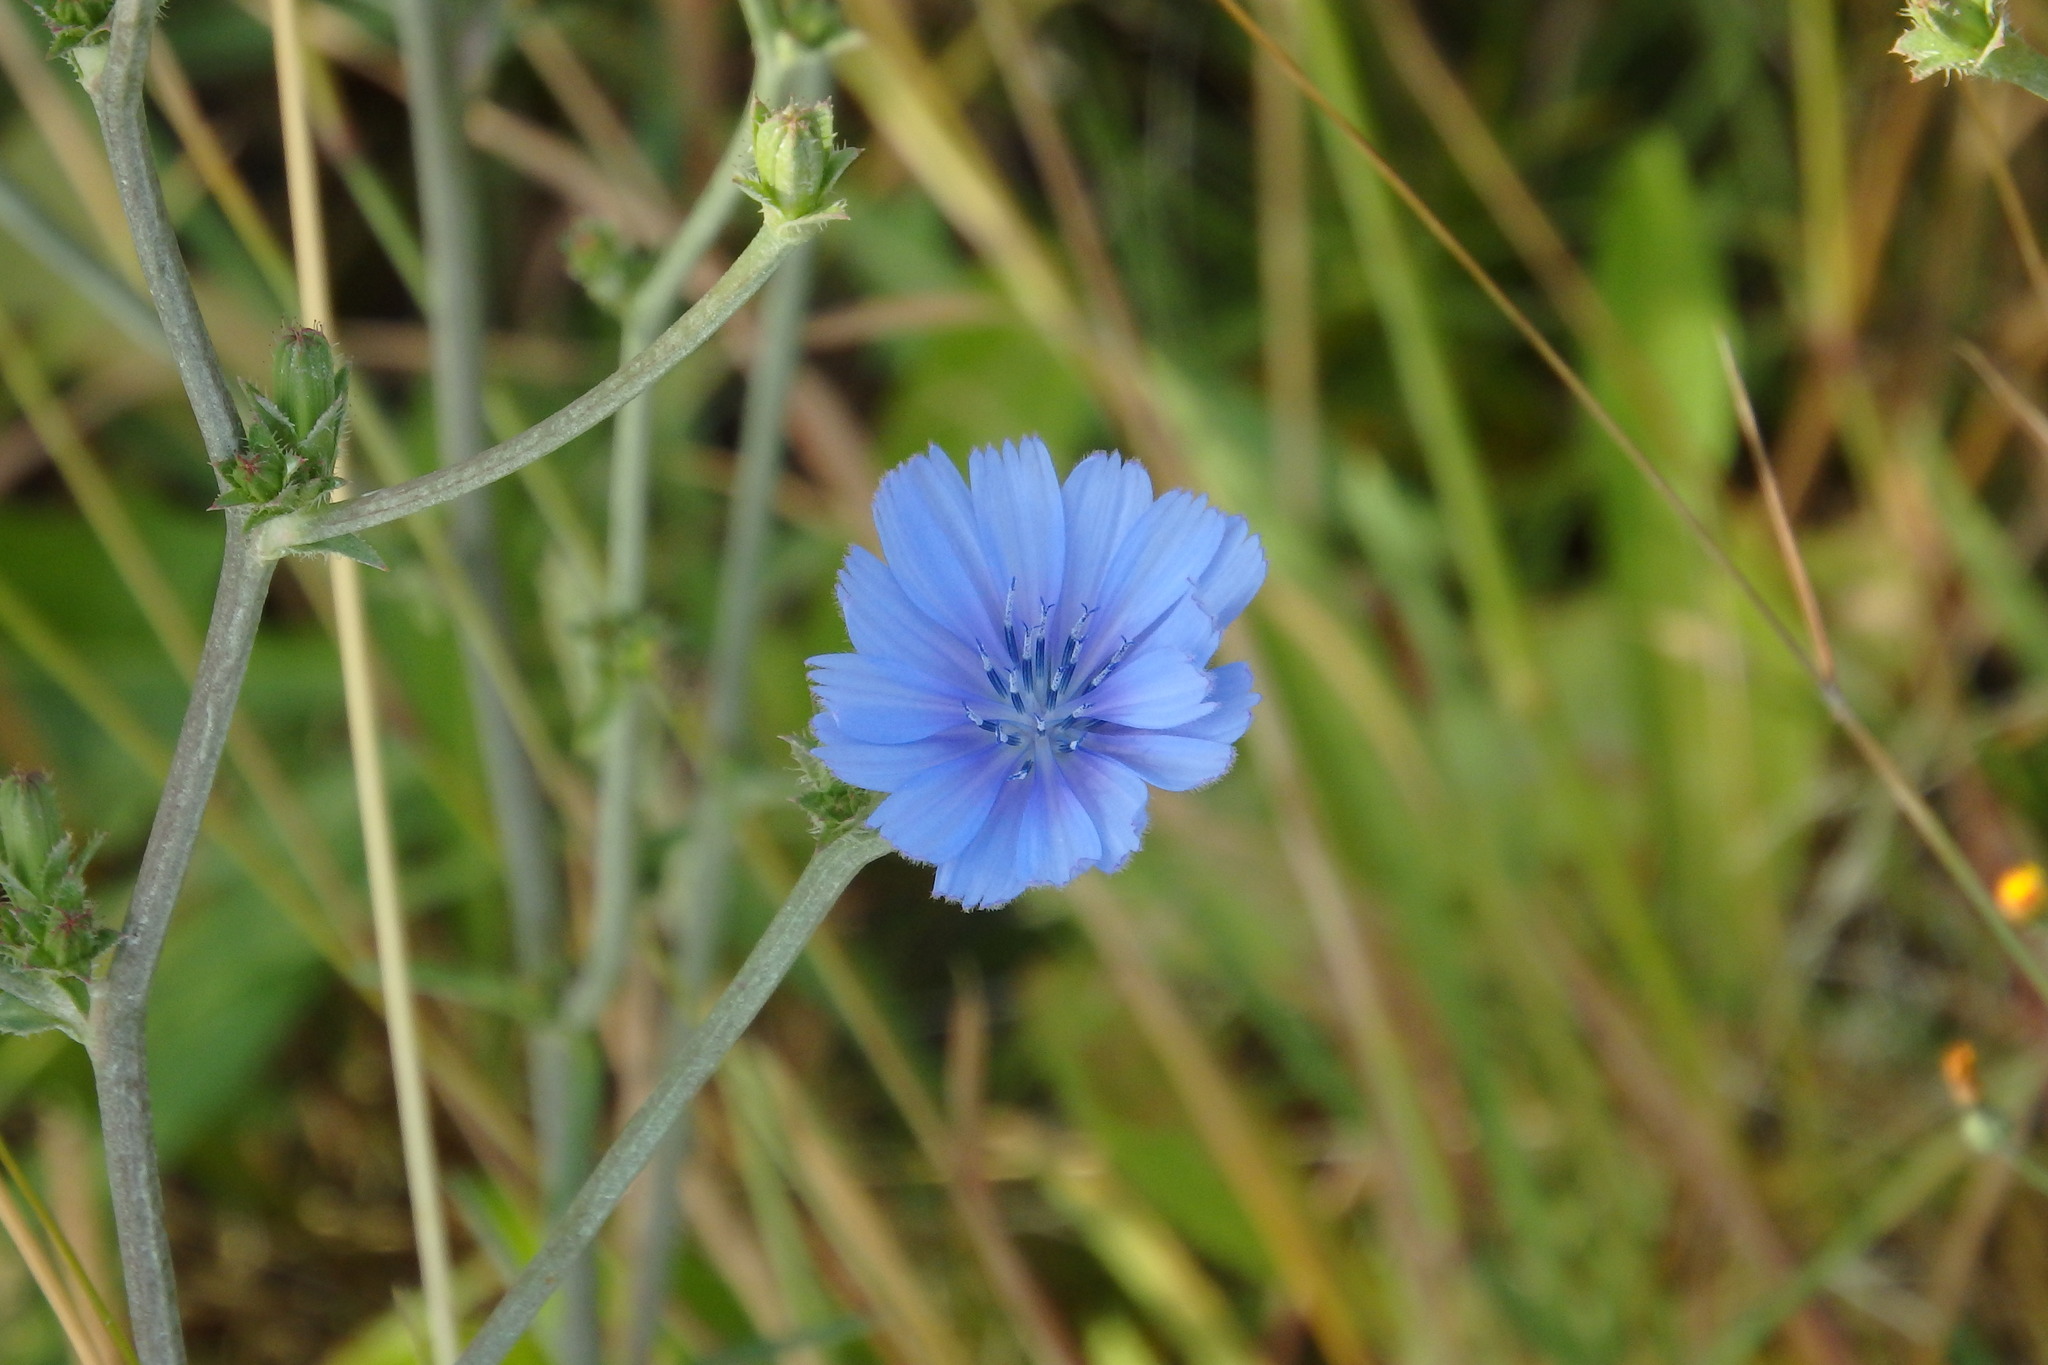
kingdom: Plantae
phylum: Tracheophyta
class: Magnoliopsida
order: Asterales
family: Asteraceae
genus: Cichorium
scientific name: Cichorium intybus
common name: Chicory
